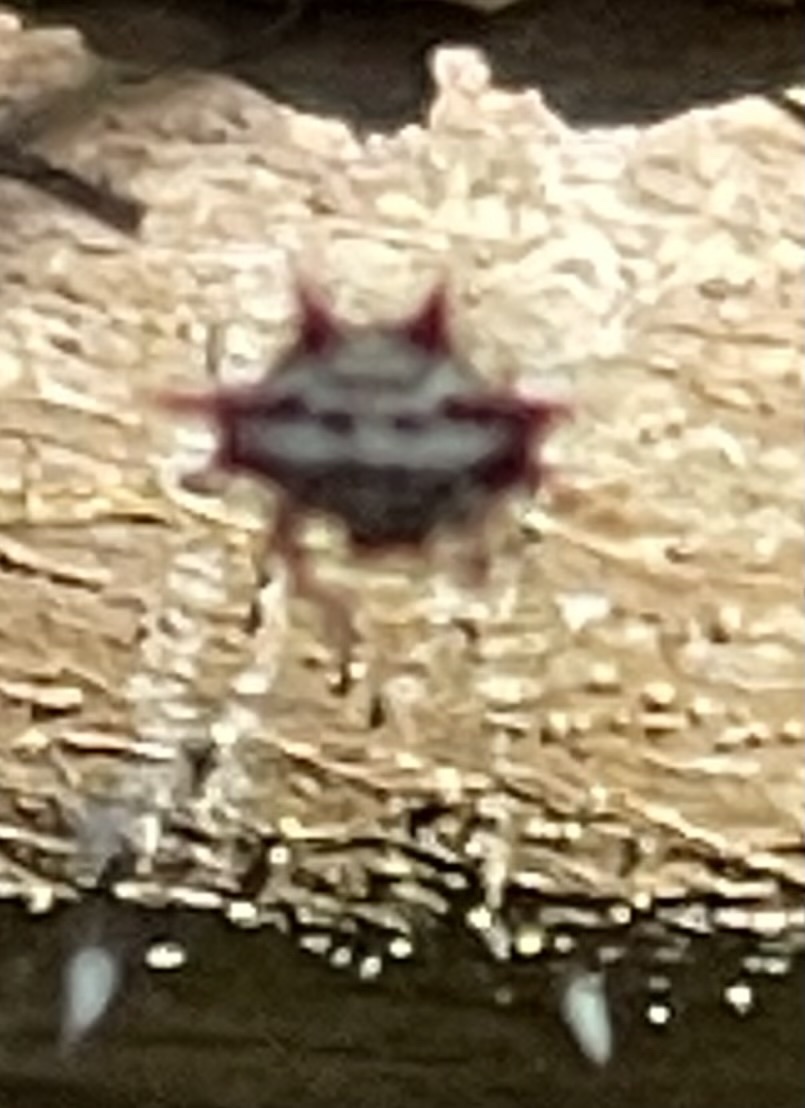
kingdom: Animalia
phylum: Arthropoda
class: Arachnida
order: Araneae
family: Araneidae
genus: Gasteracantha
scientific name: Gasteracantha cancriformis
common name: Orb weavers
